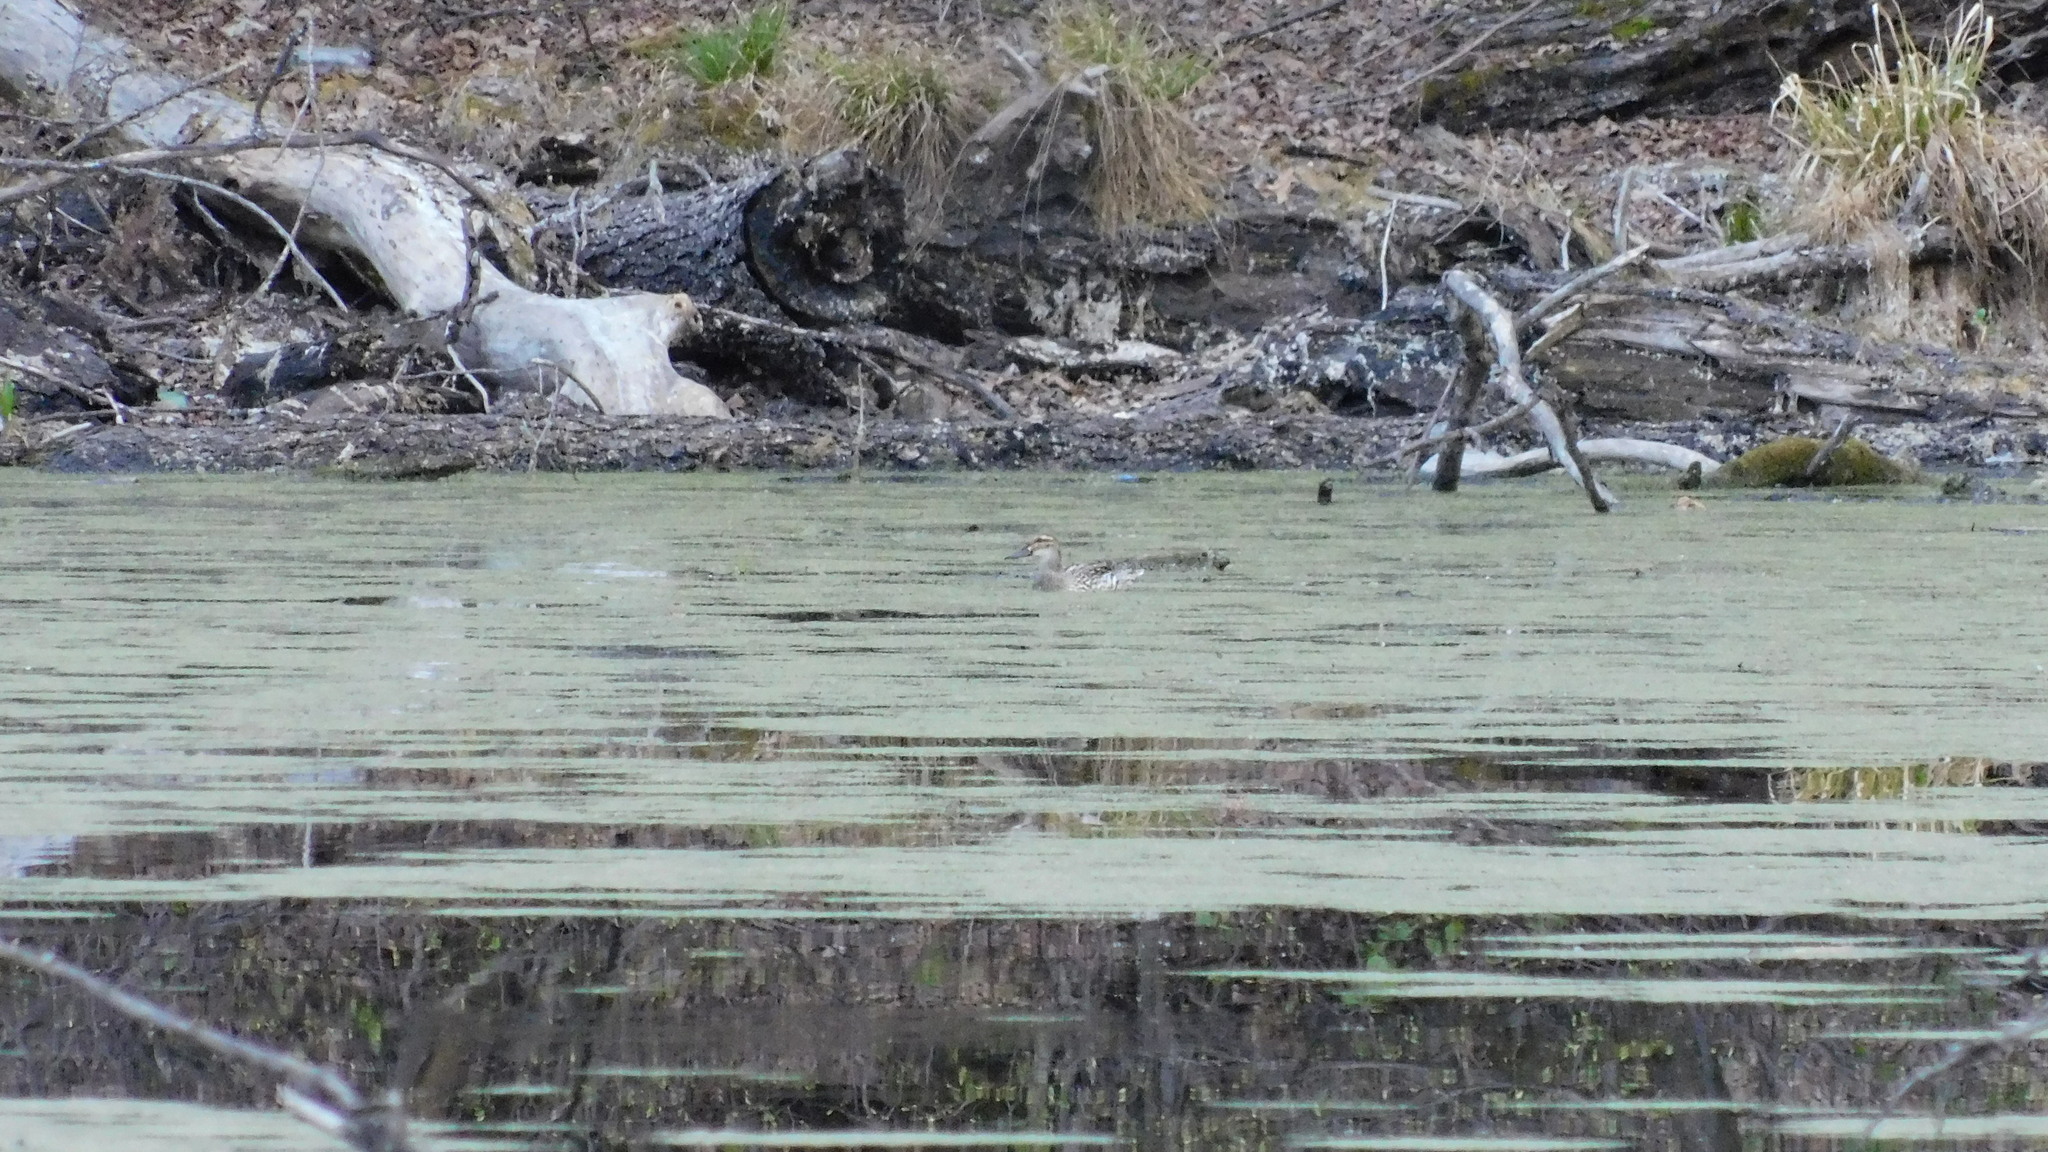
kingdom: Animalia
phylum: Chordata
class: Aves
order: Anseriformes
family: Anatidae
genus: Spatula
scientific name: Spatula querquedula
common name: Garganey
